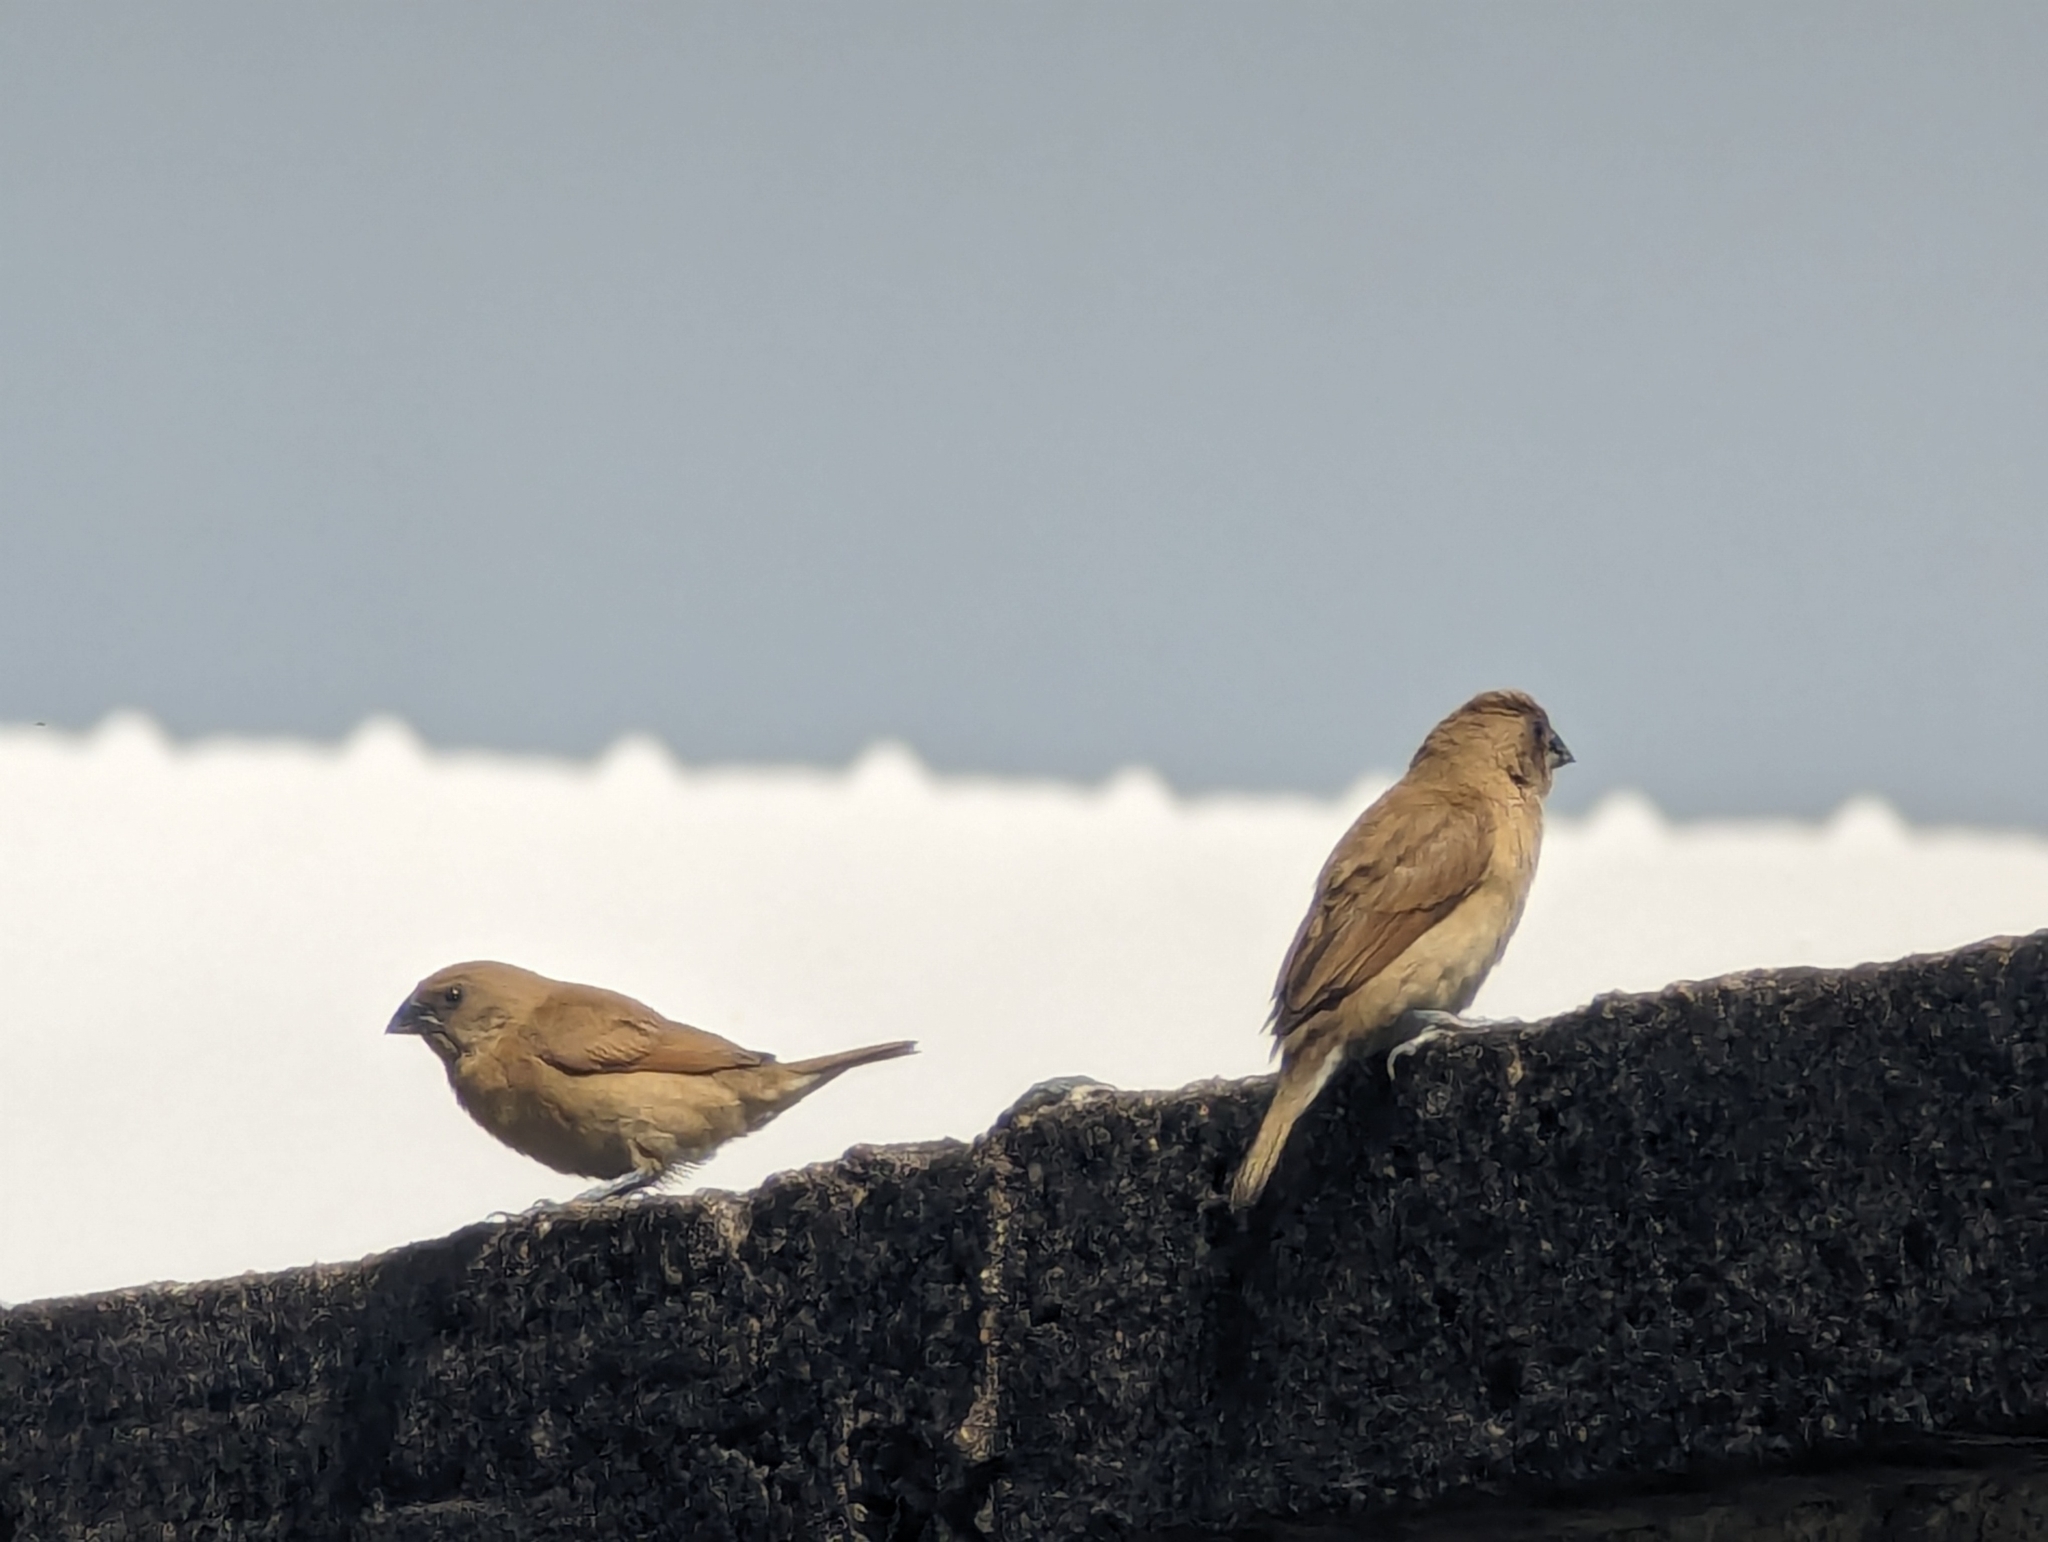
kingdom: Animalia
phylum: Chordata
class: Aves
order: Passeriformes
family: Estrildidae
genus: Lonchura
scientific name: Lonchura punctulata
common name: Scaly-breasted munia
